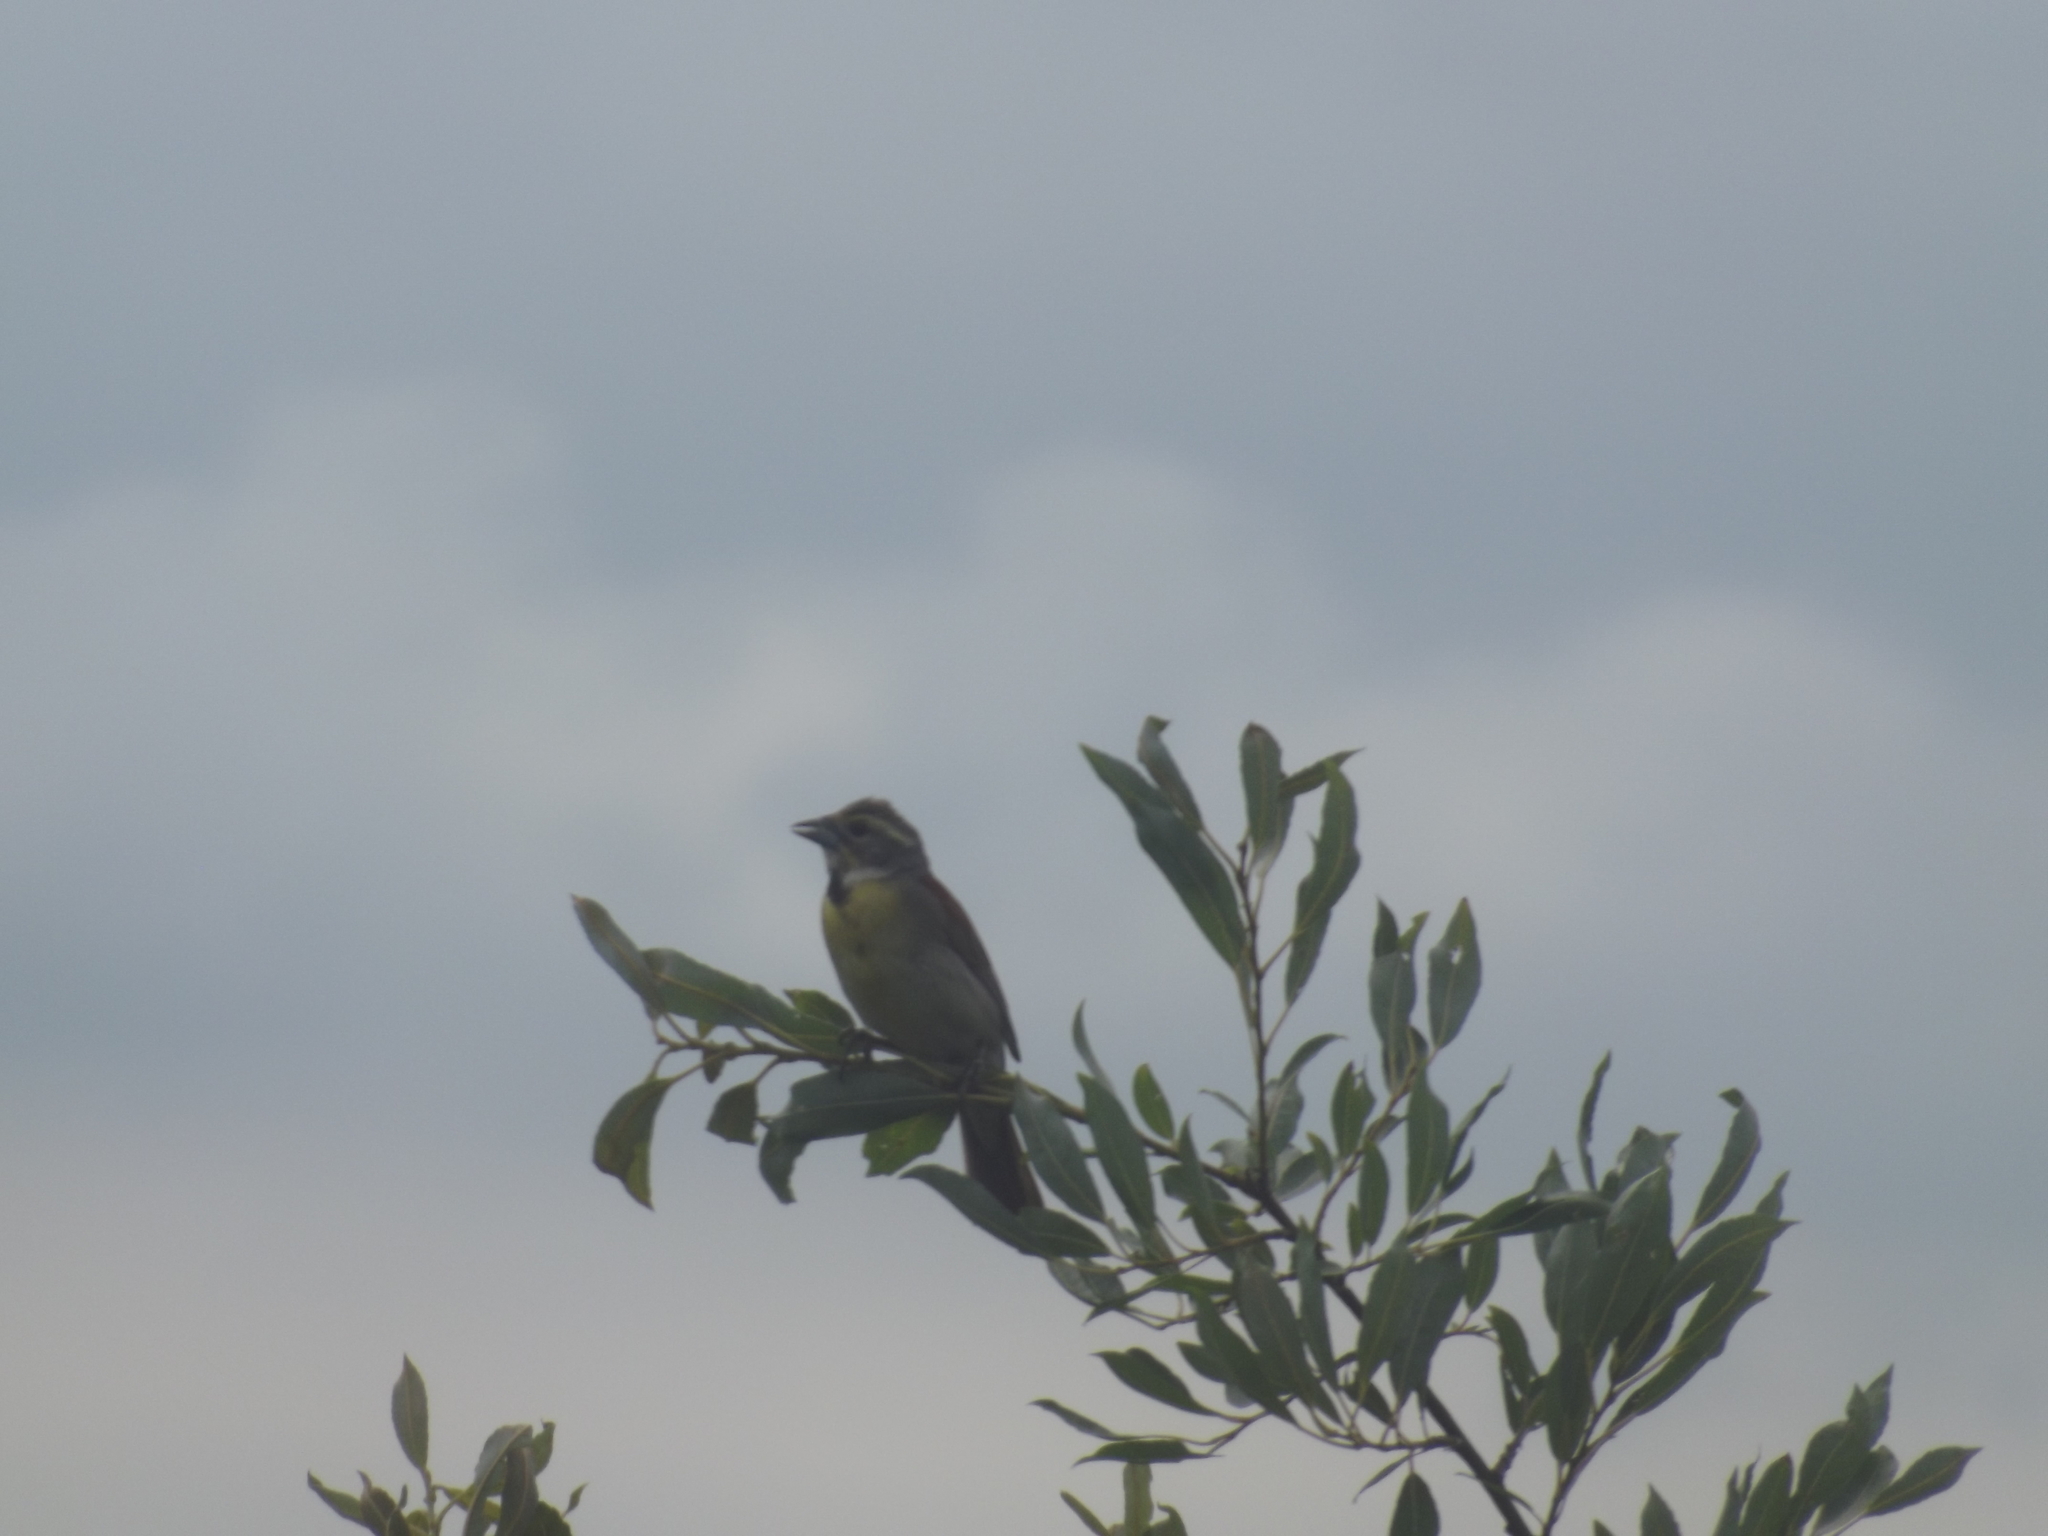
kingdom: Animalia
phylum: Chordata
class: Aves
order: Passeriformes
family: Cardinalidae
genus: Spiza
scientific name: Spiza americana
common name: Dickcissel
